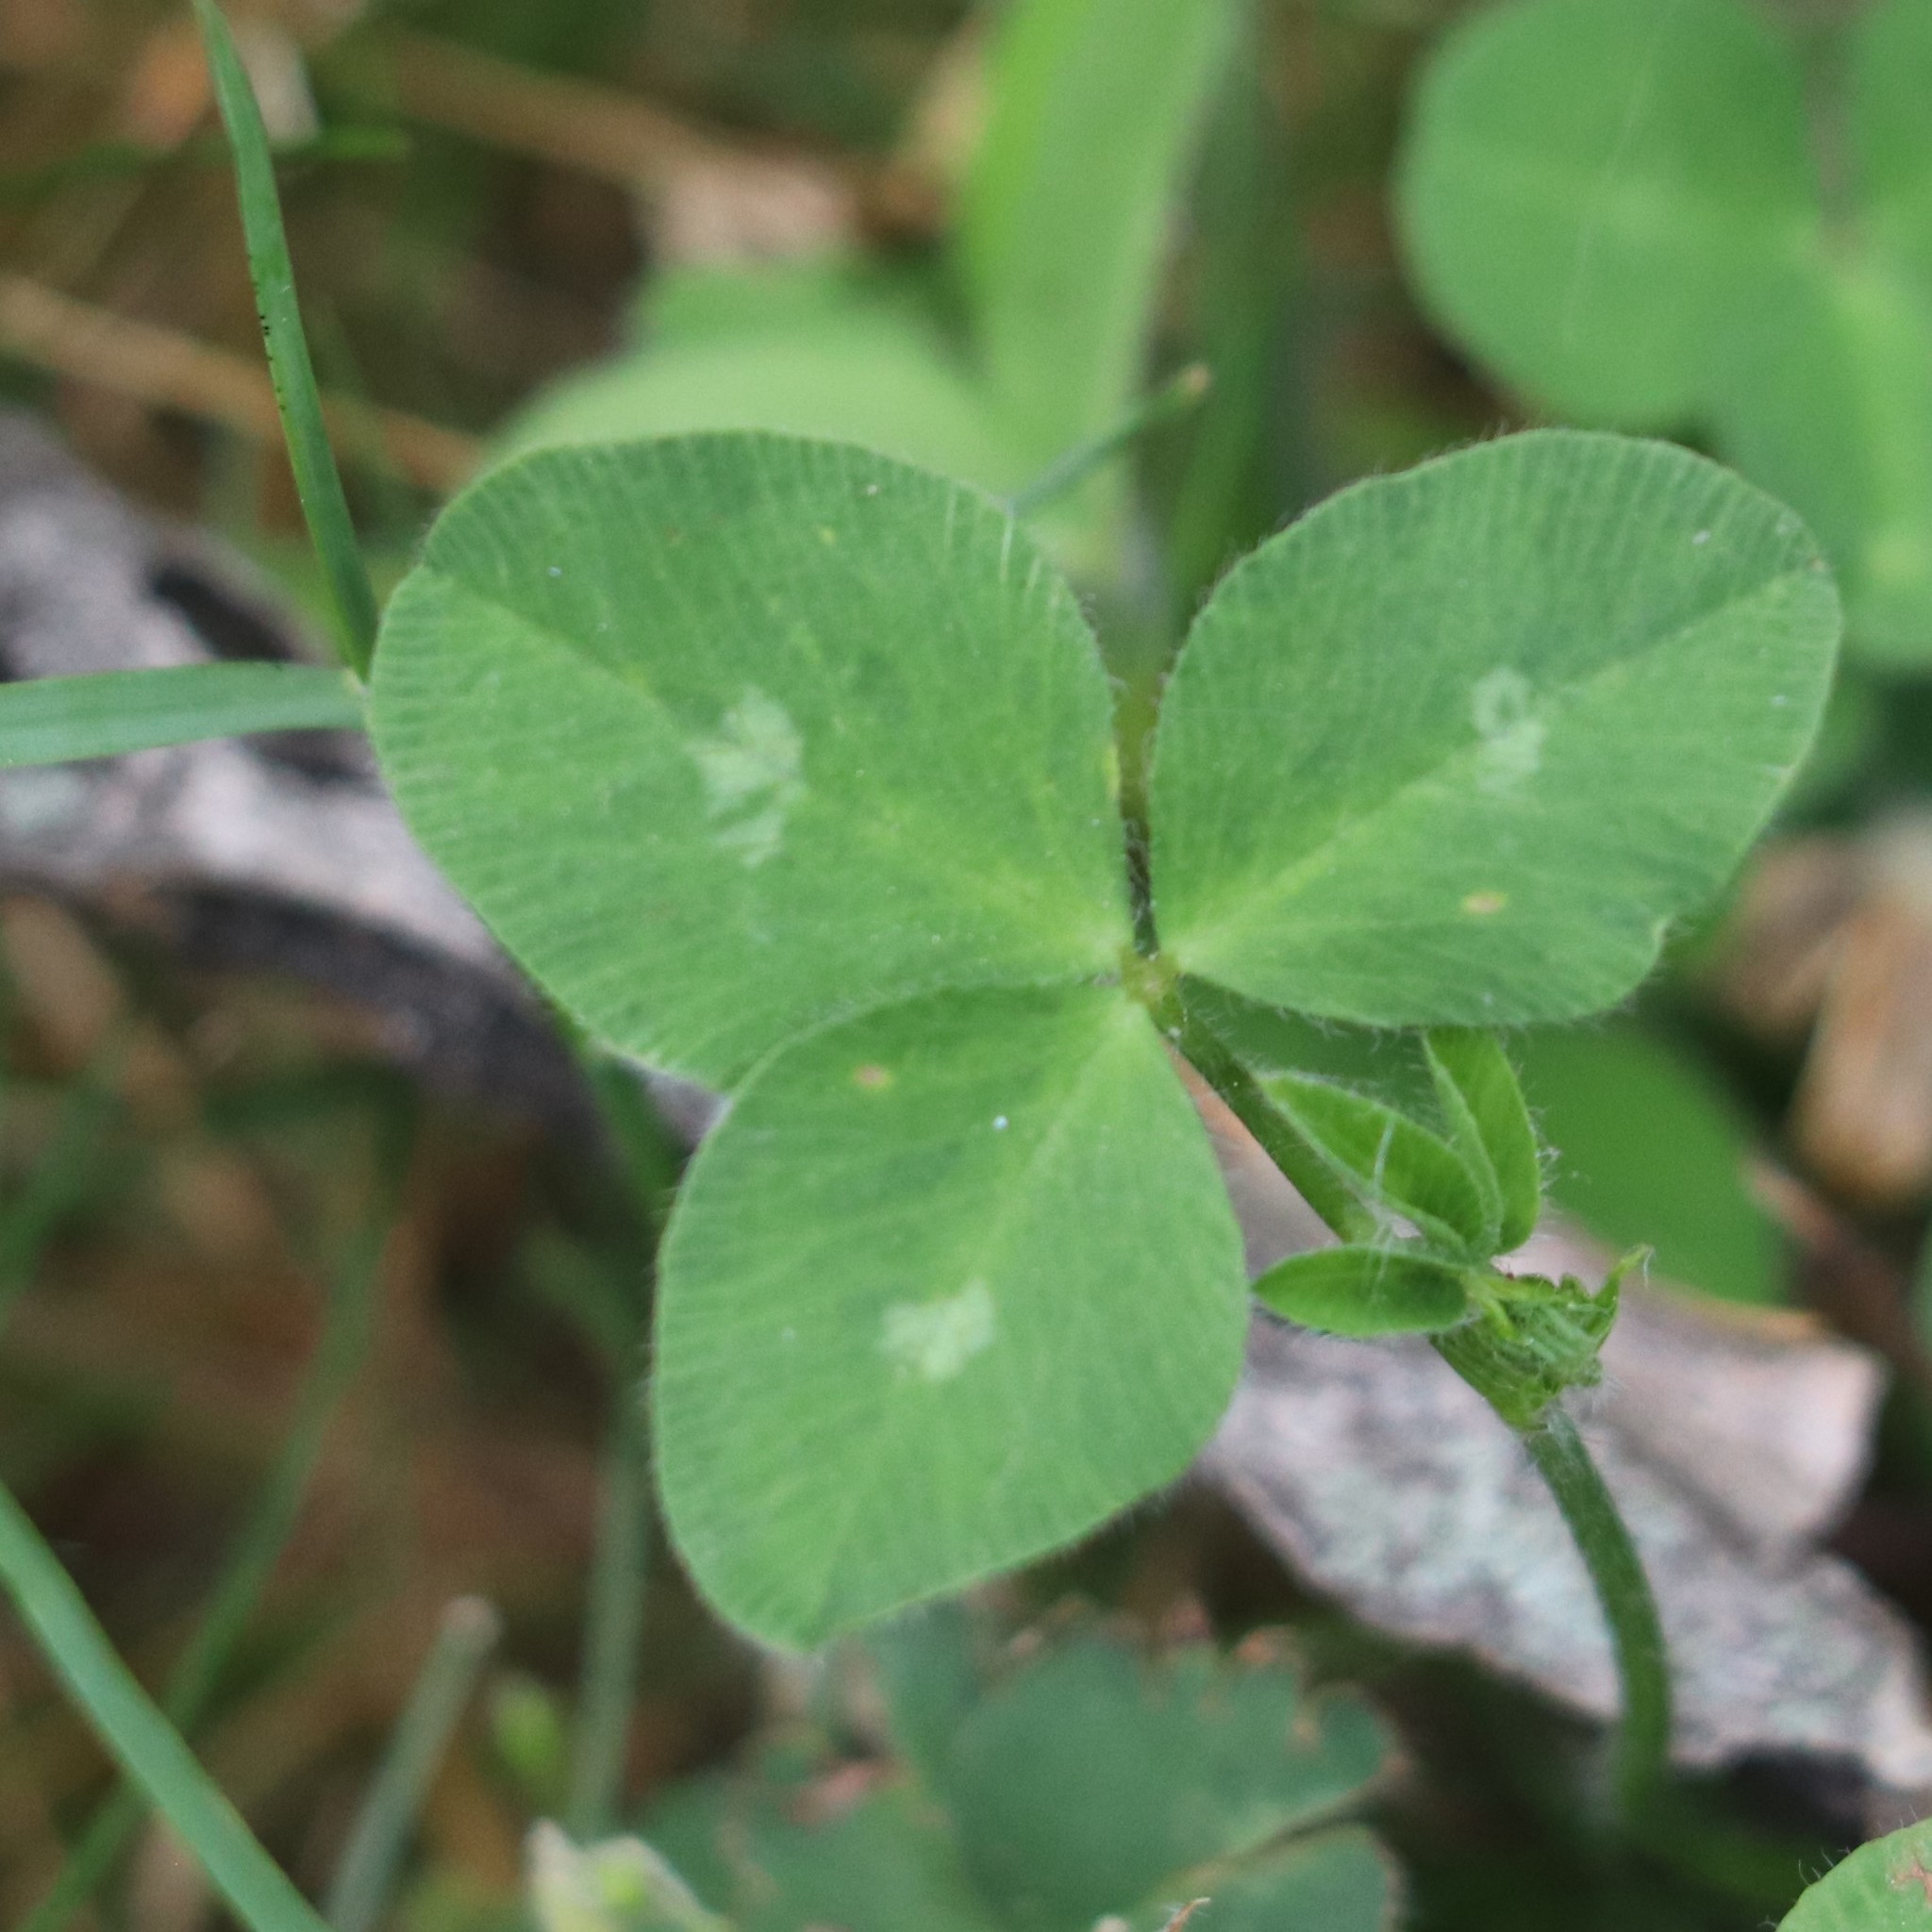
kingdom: Plantae
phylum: Tracheophyta
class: Magnoliopsida
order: Fabales
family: Fabaceae
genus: Trifolium
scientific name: Trifolium pratense
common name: Red clover
